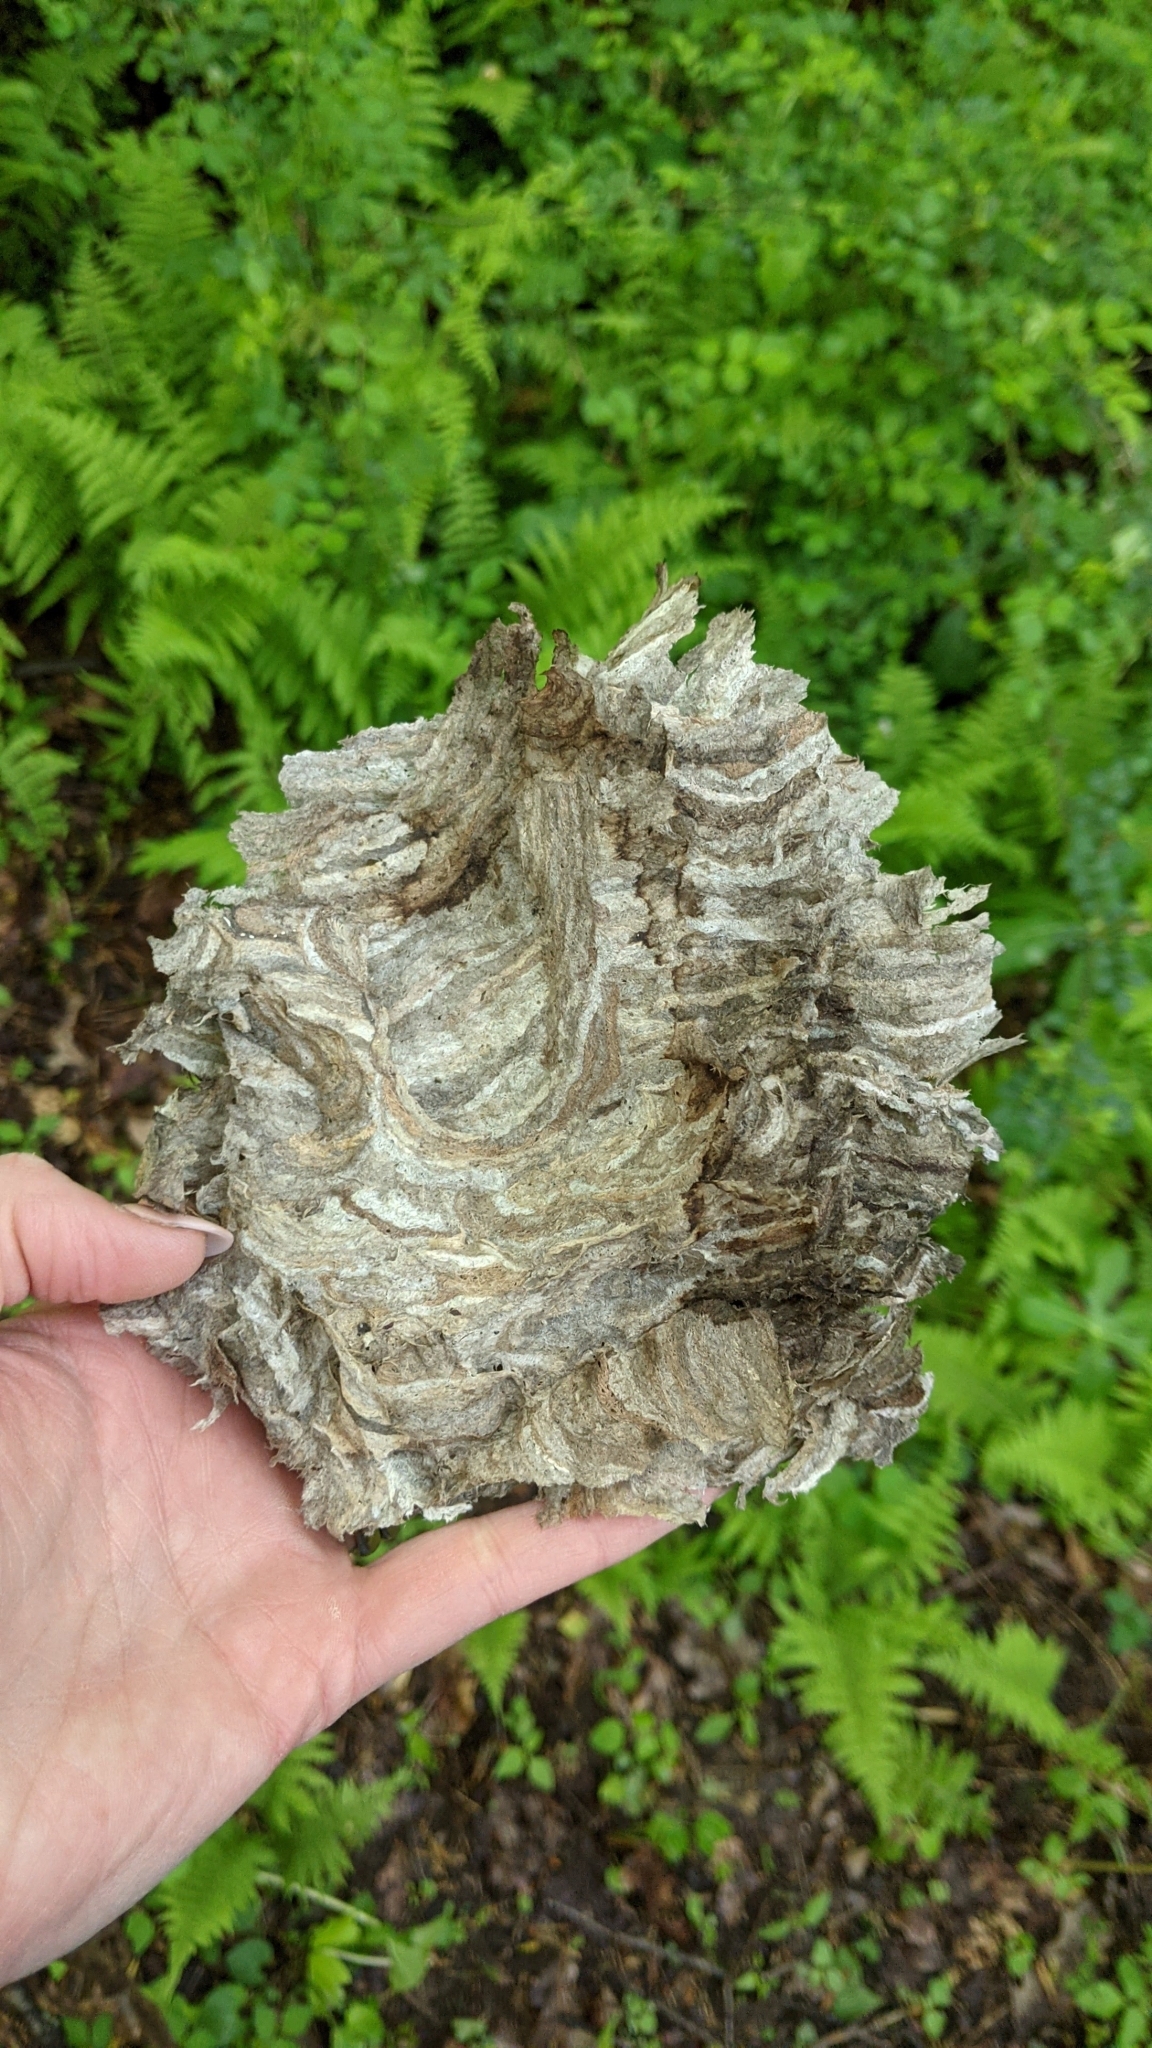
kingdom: Animalia
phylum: Arthropoda
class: Insecta
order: Hymenoptera
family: Vespidae
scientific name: Vespidae
